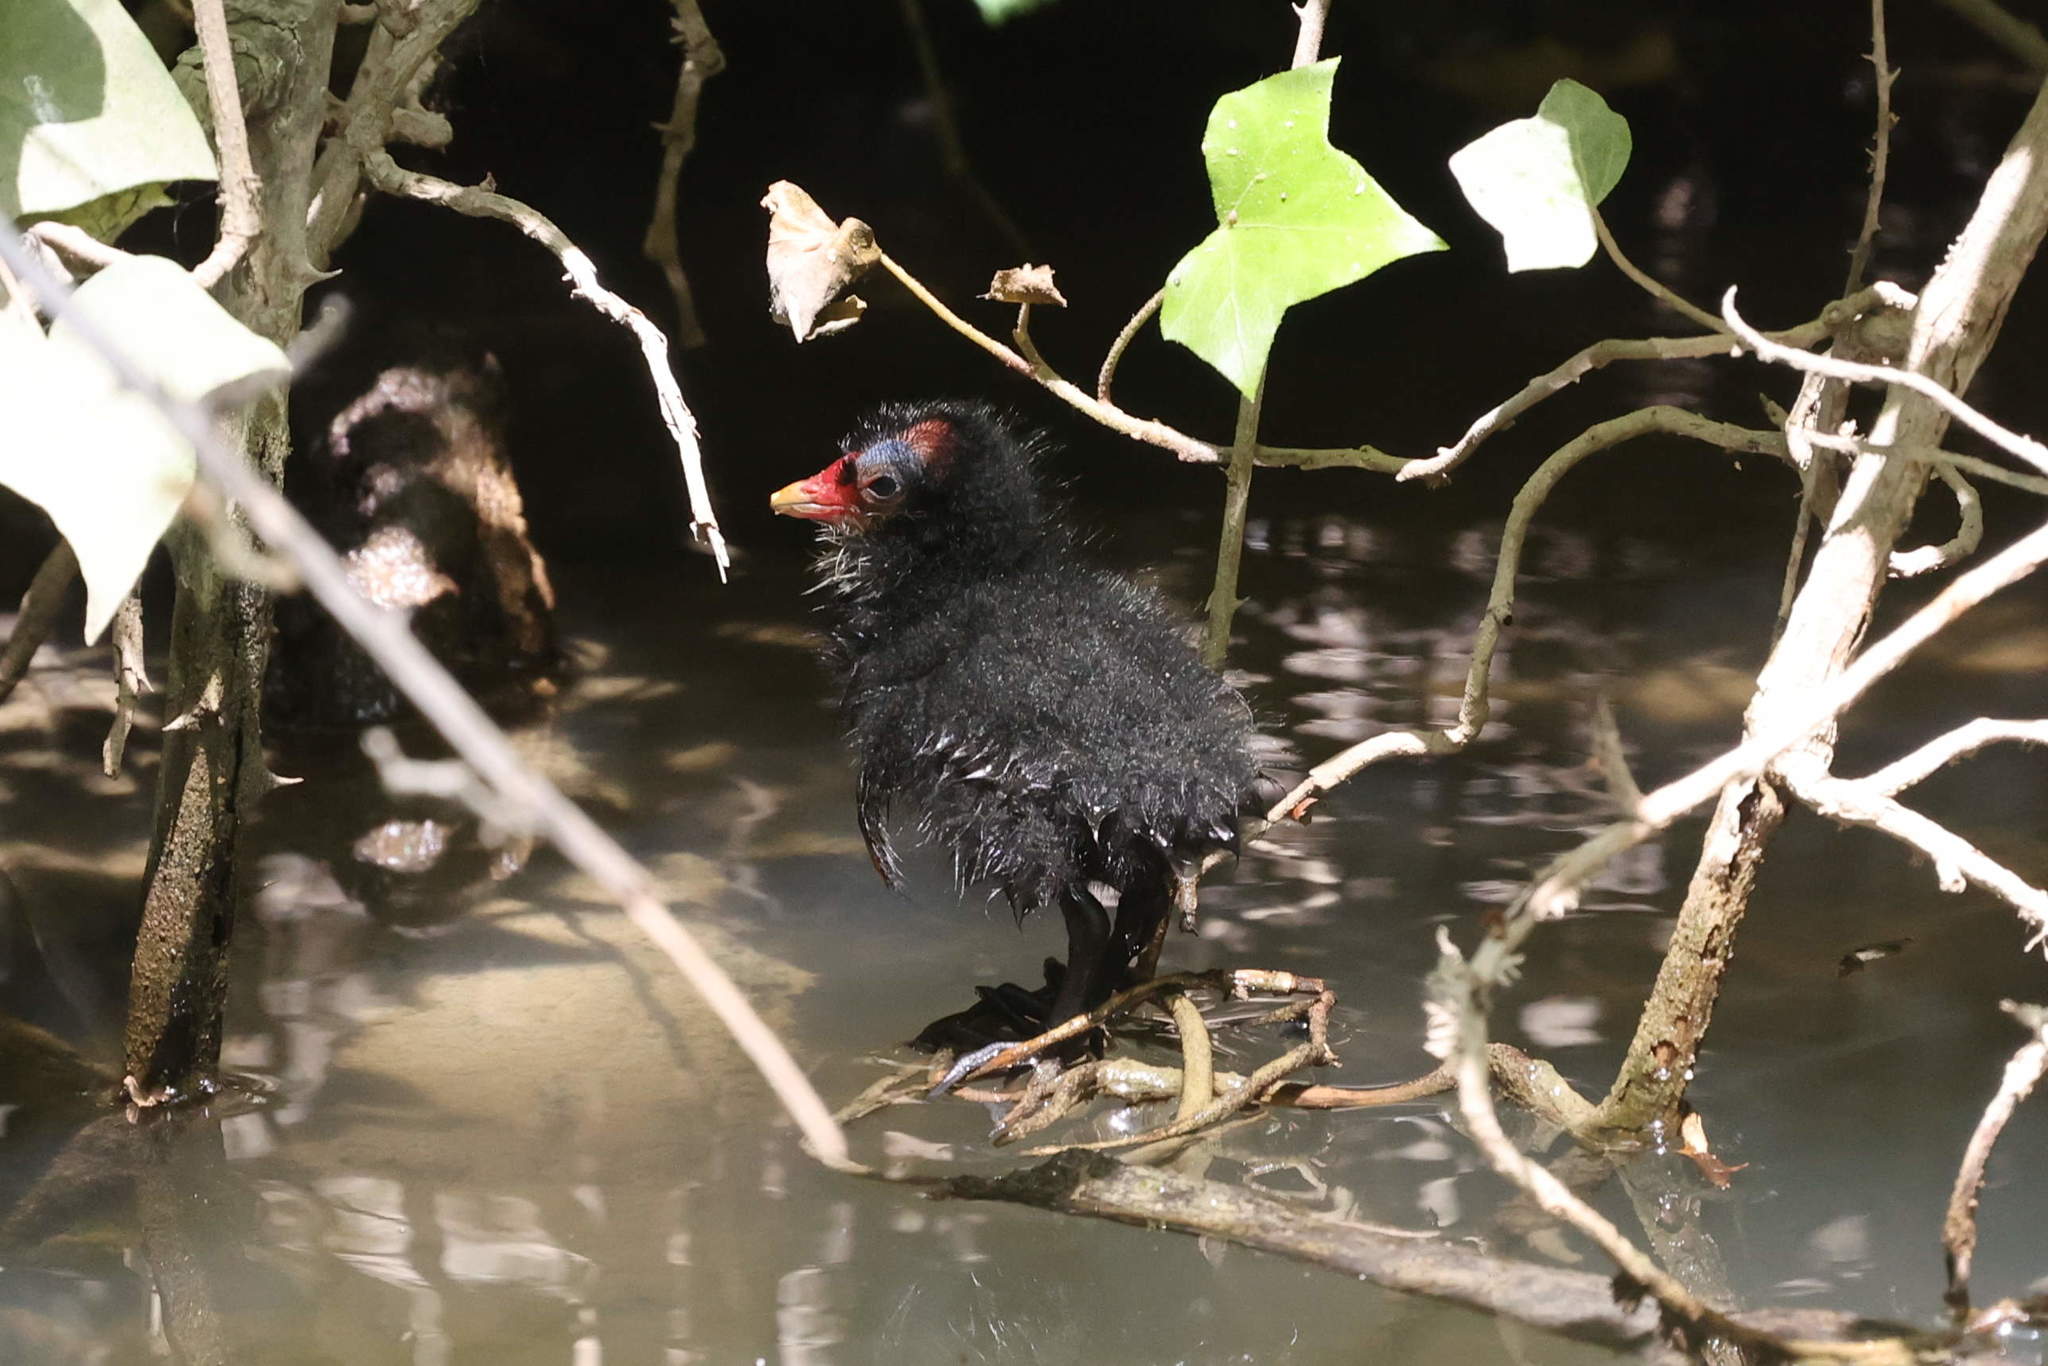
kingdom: Animalia
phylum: Chordata
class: Aves
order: Gruiformes
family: Rallidae
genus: Gallinula
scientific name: Gallinula chloropus
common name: Common moorhen
